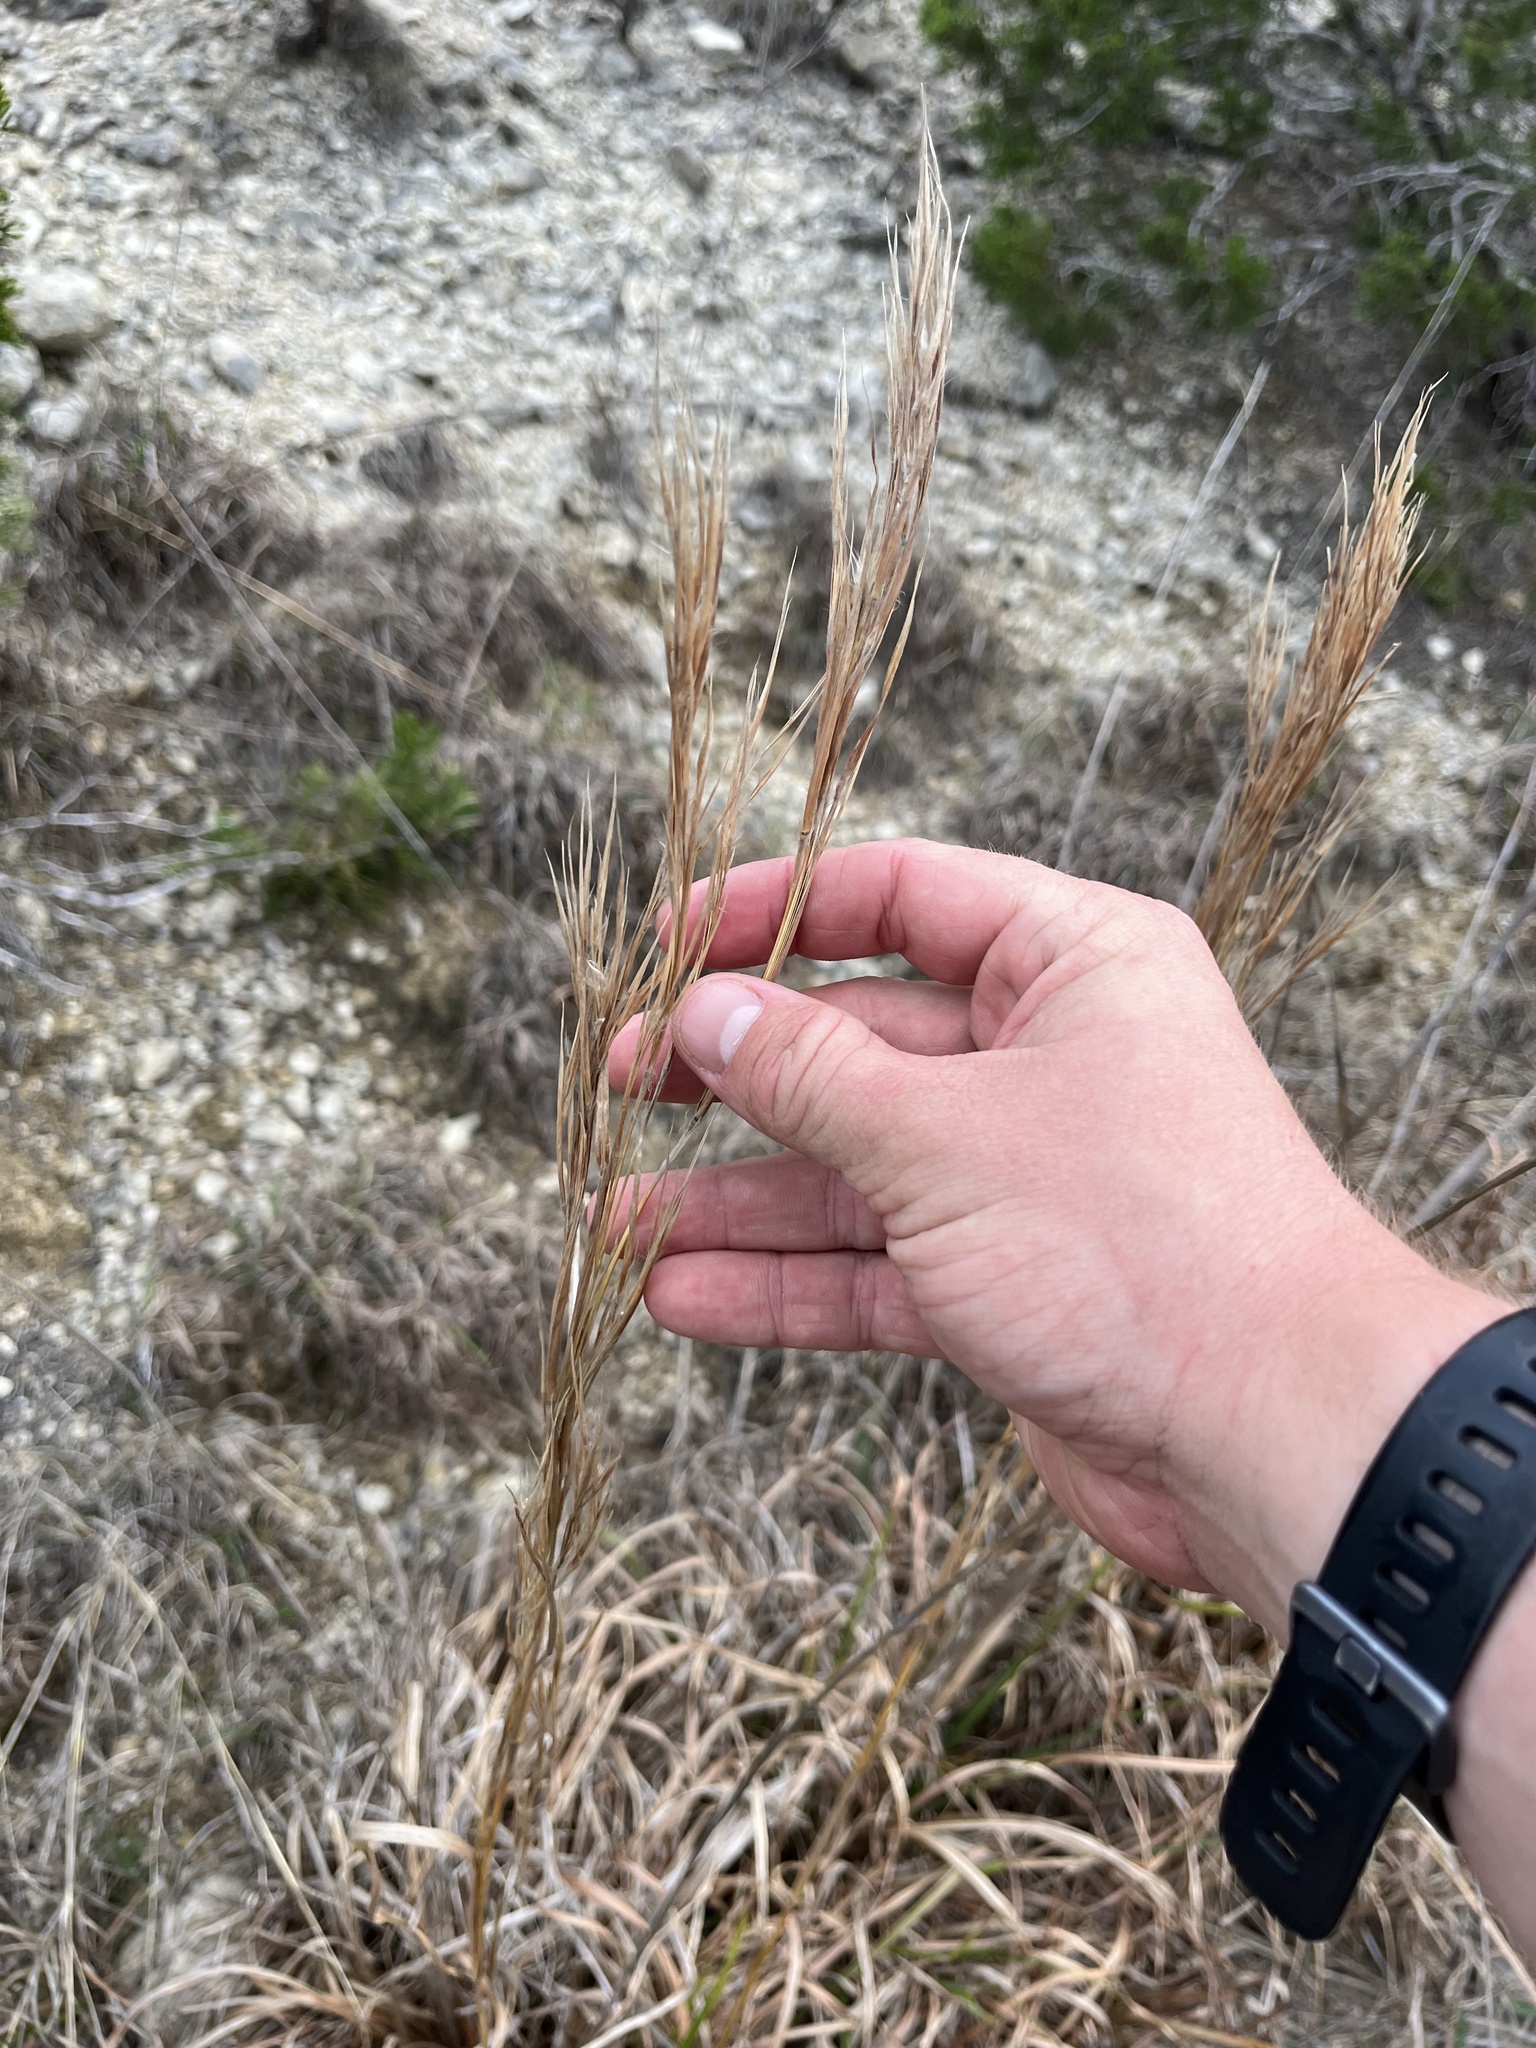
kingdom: Plantae
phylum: Tracheophyta
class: Liliopsida
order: Poales
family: Poaceae
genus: Andropogon
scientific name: Andropogon tenuispatheus
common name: Bushy bluestem
